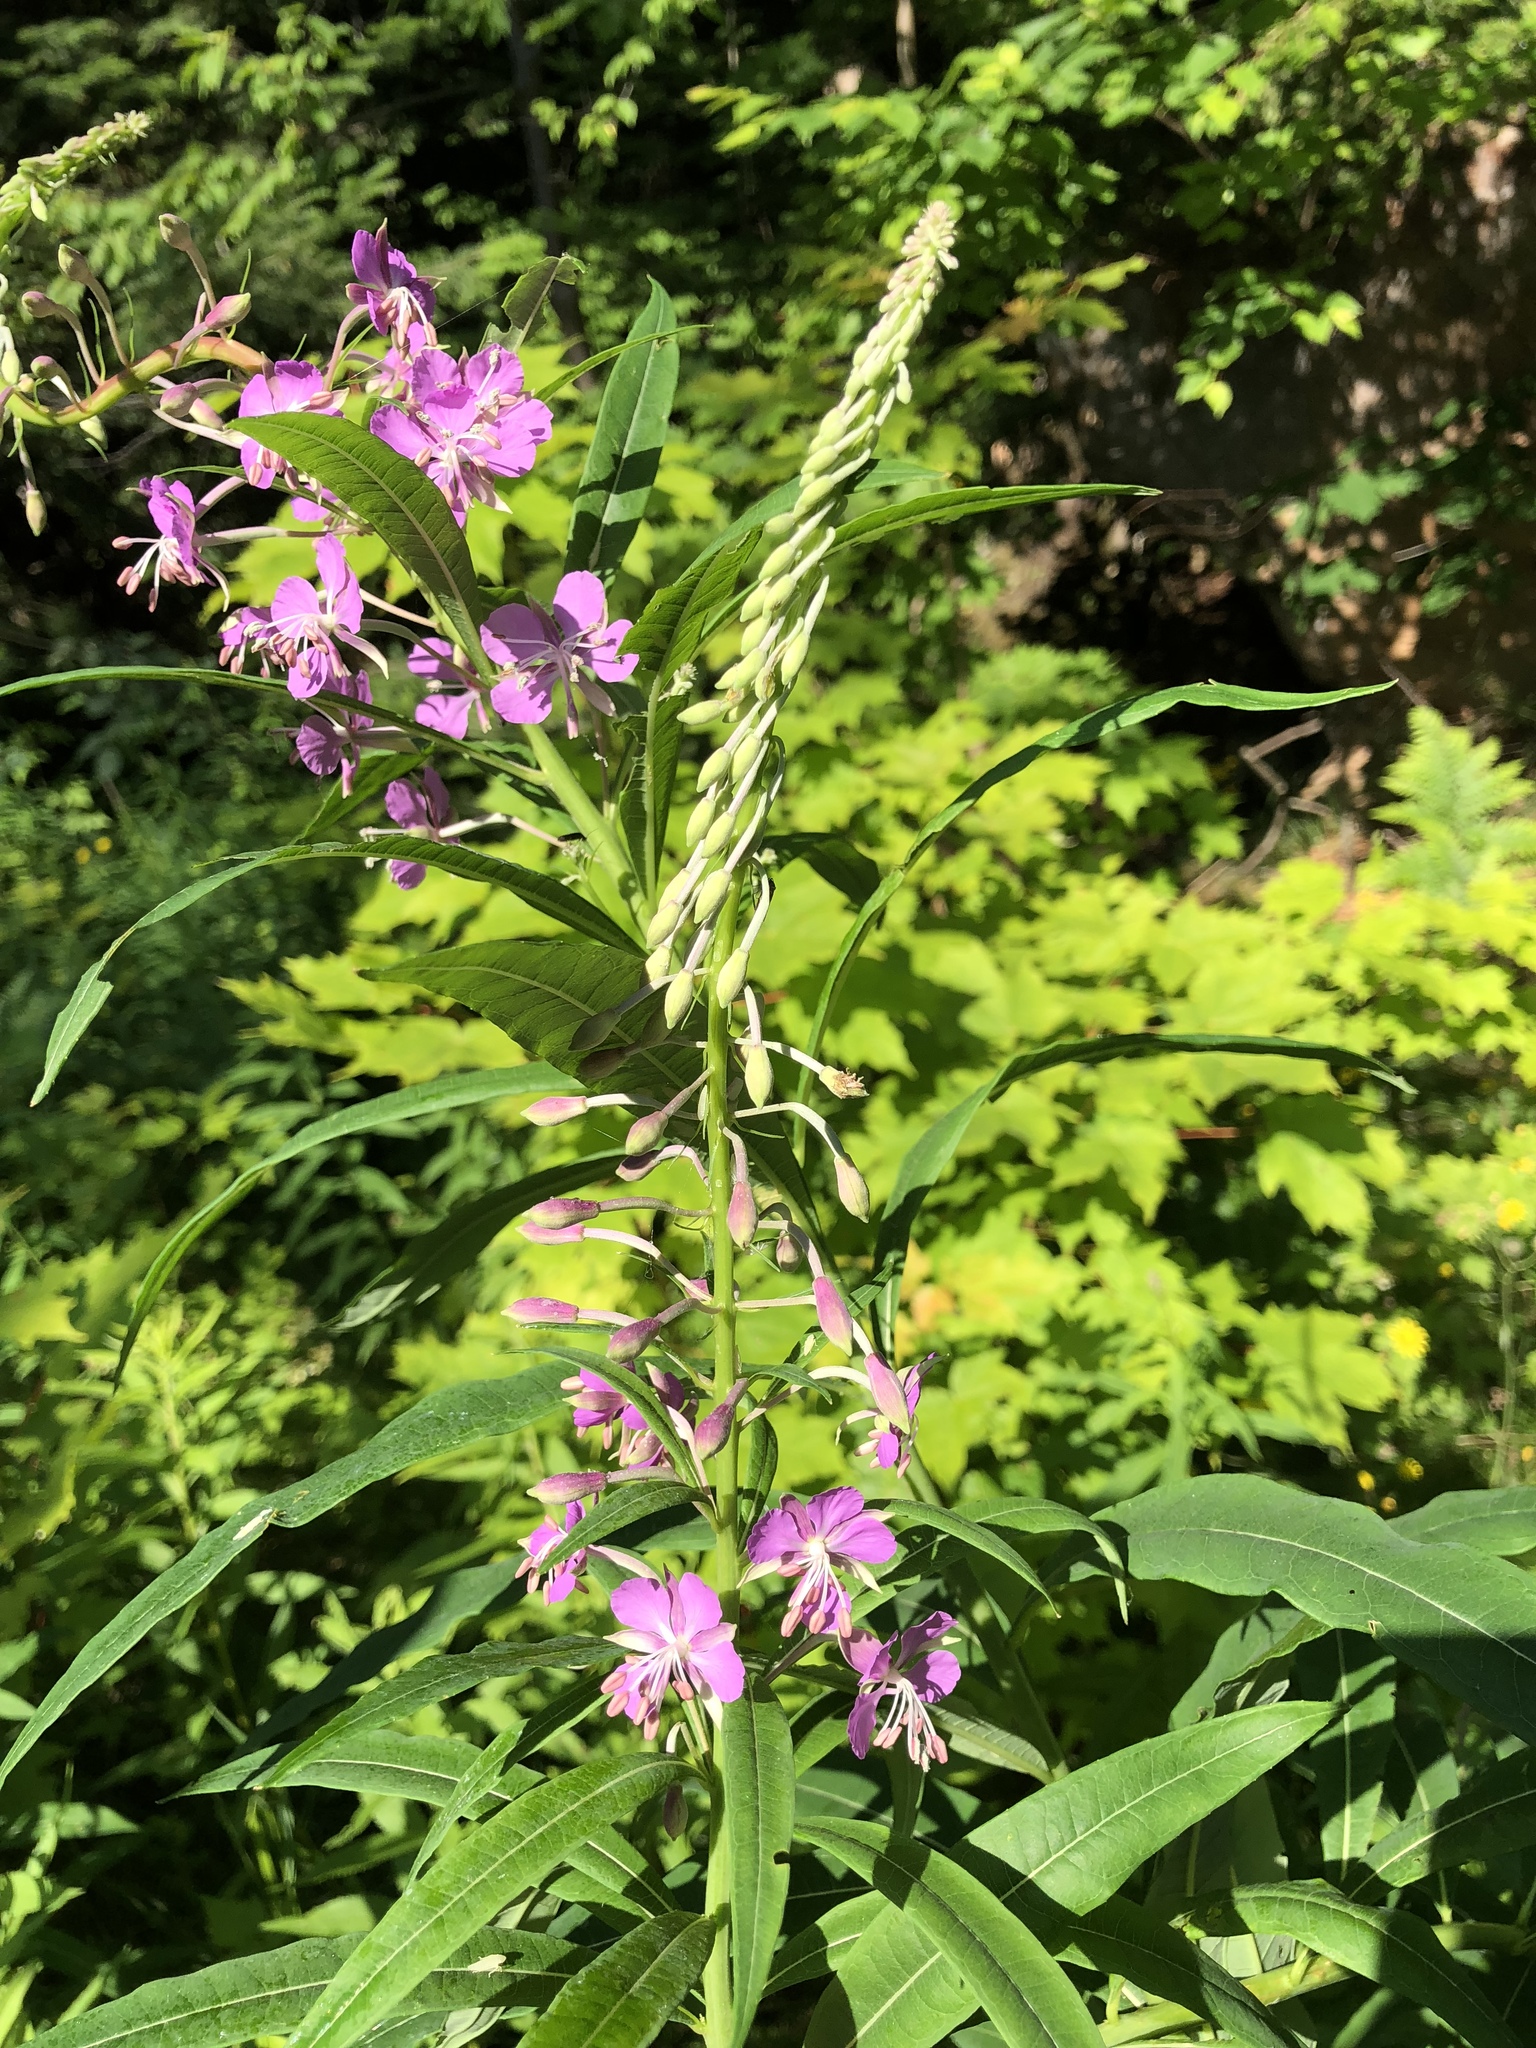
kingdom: Plantae
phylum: Tracheophyta
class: Magnoliopsida
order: Myrtales
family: Onagraceae
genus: Chamaenerion
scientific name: Chamaenerion angustifolium
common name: Fireweed
